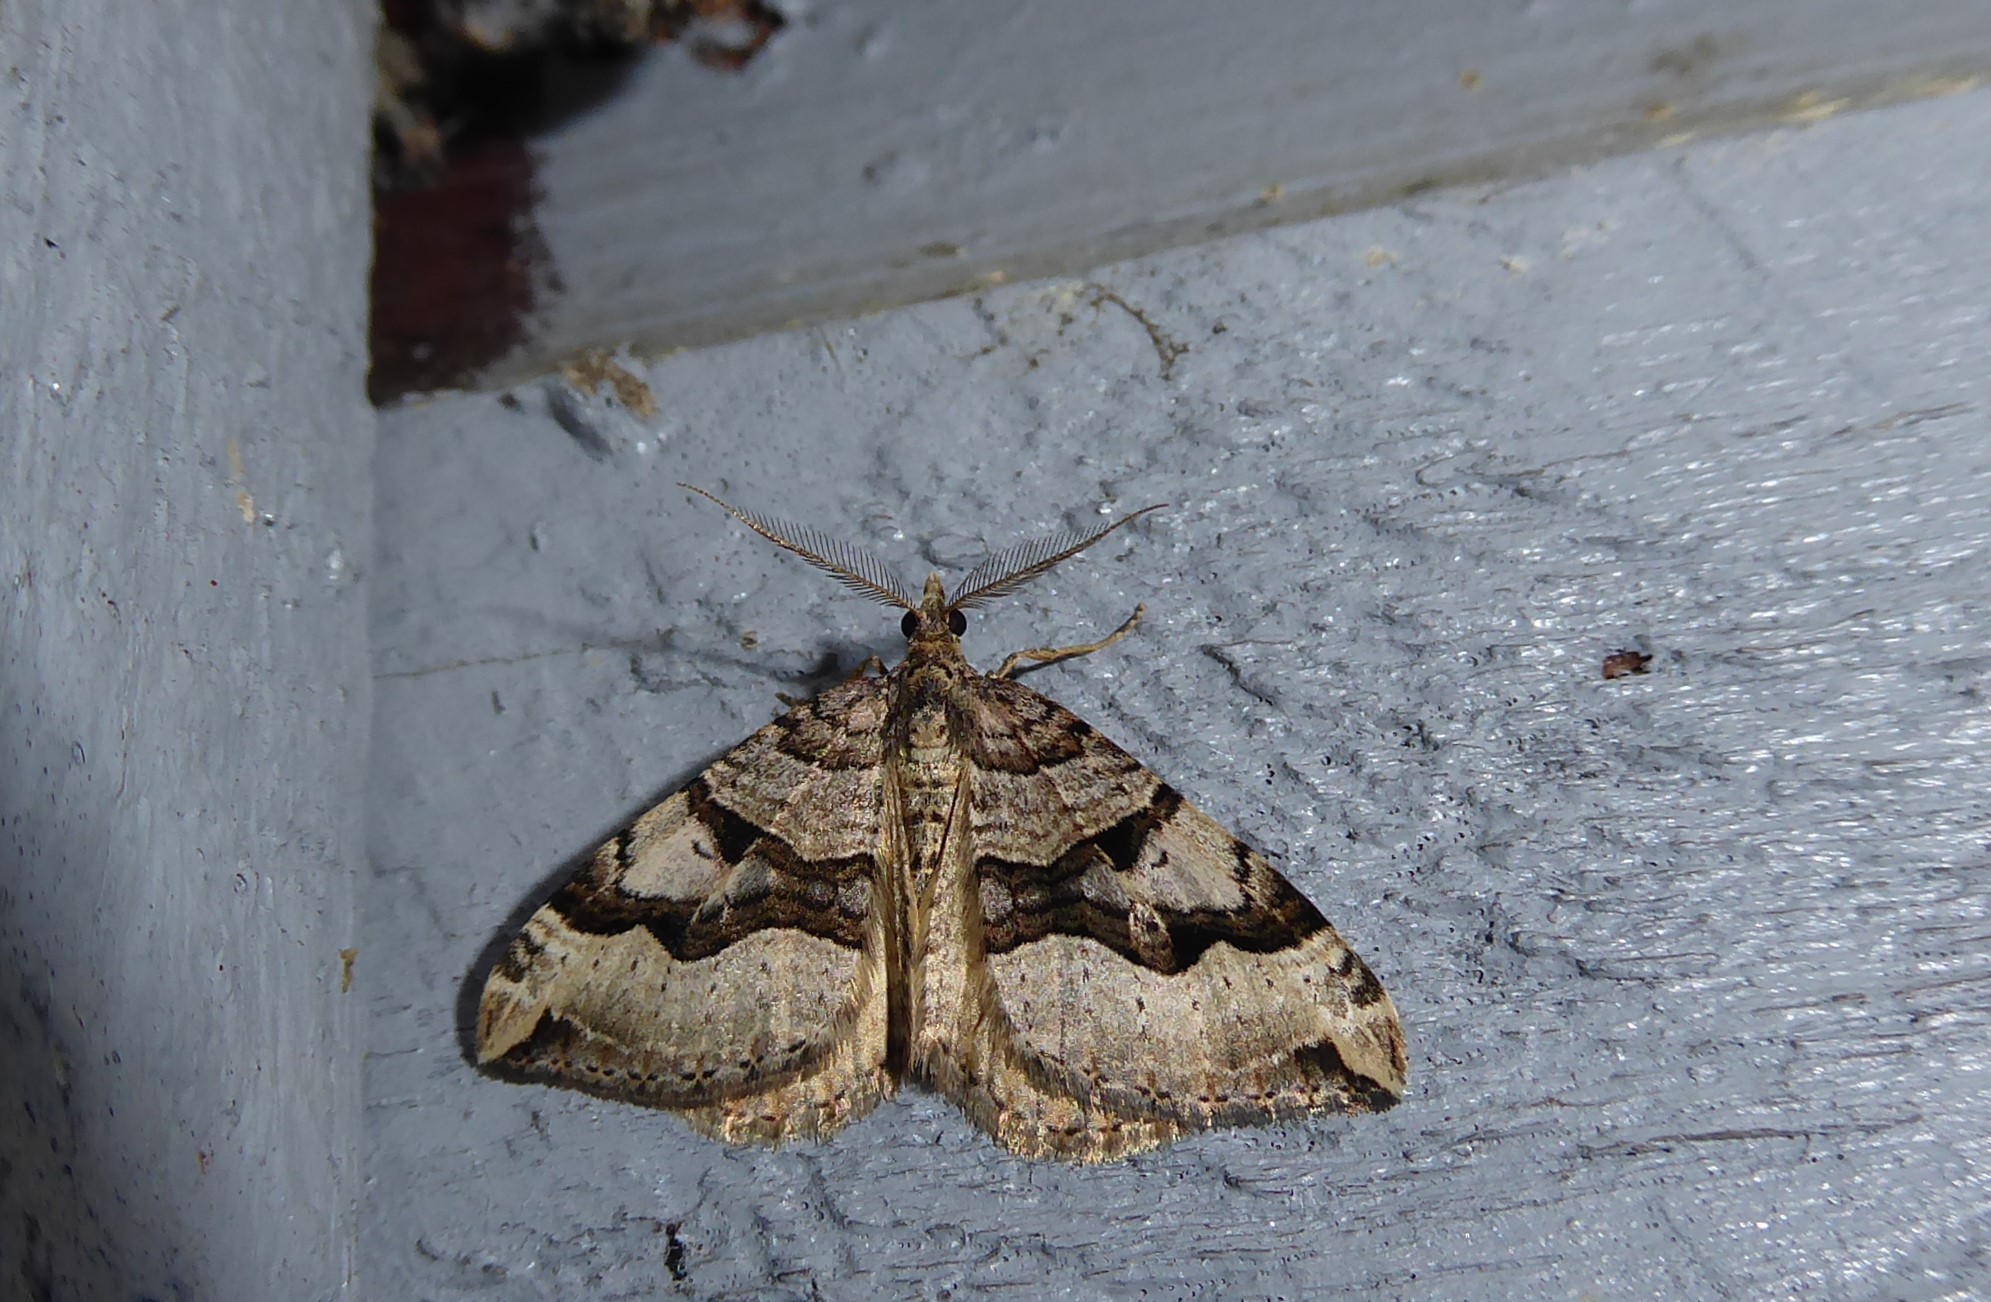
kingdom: Animalia
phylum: Arthropoda
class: Insecta
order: Lepidoptera
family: Geometridae
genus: Xanthorhoe
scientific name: Xanthorhoe semifissata
